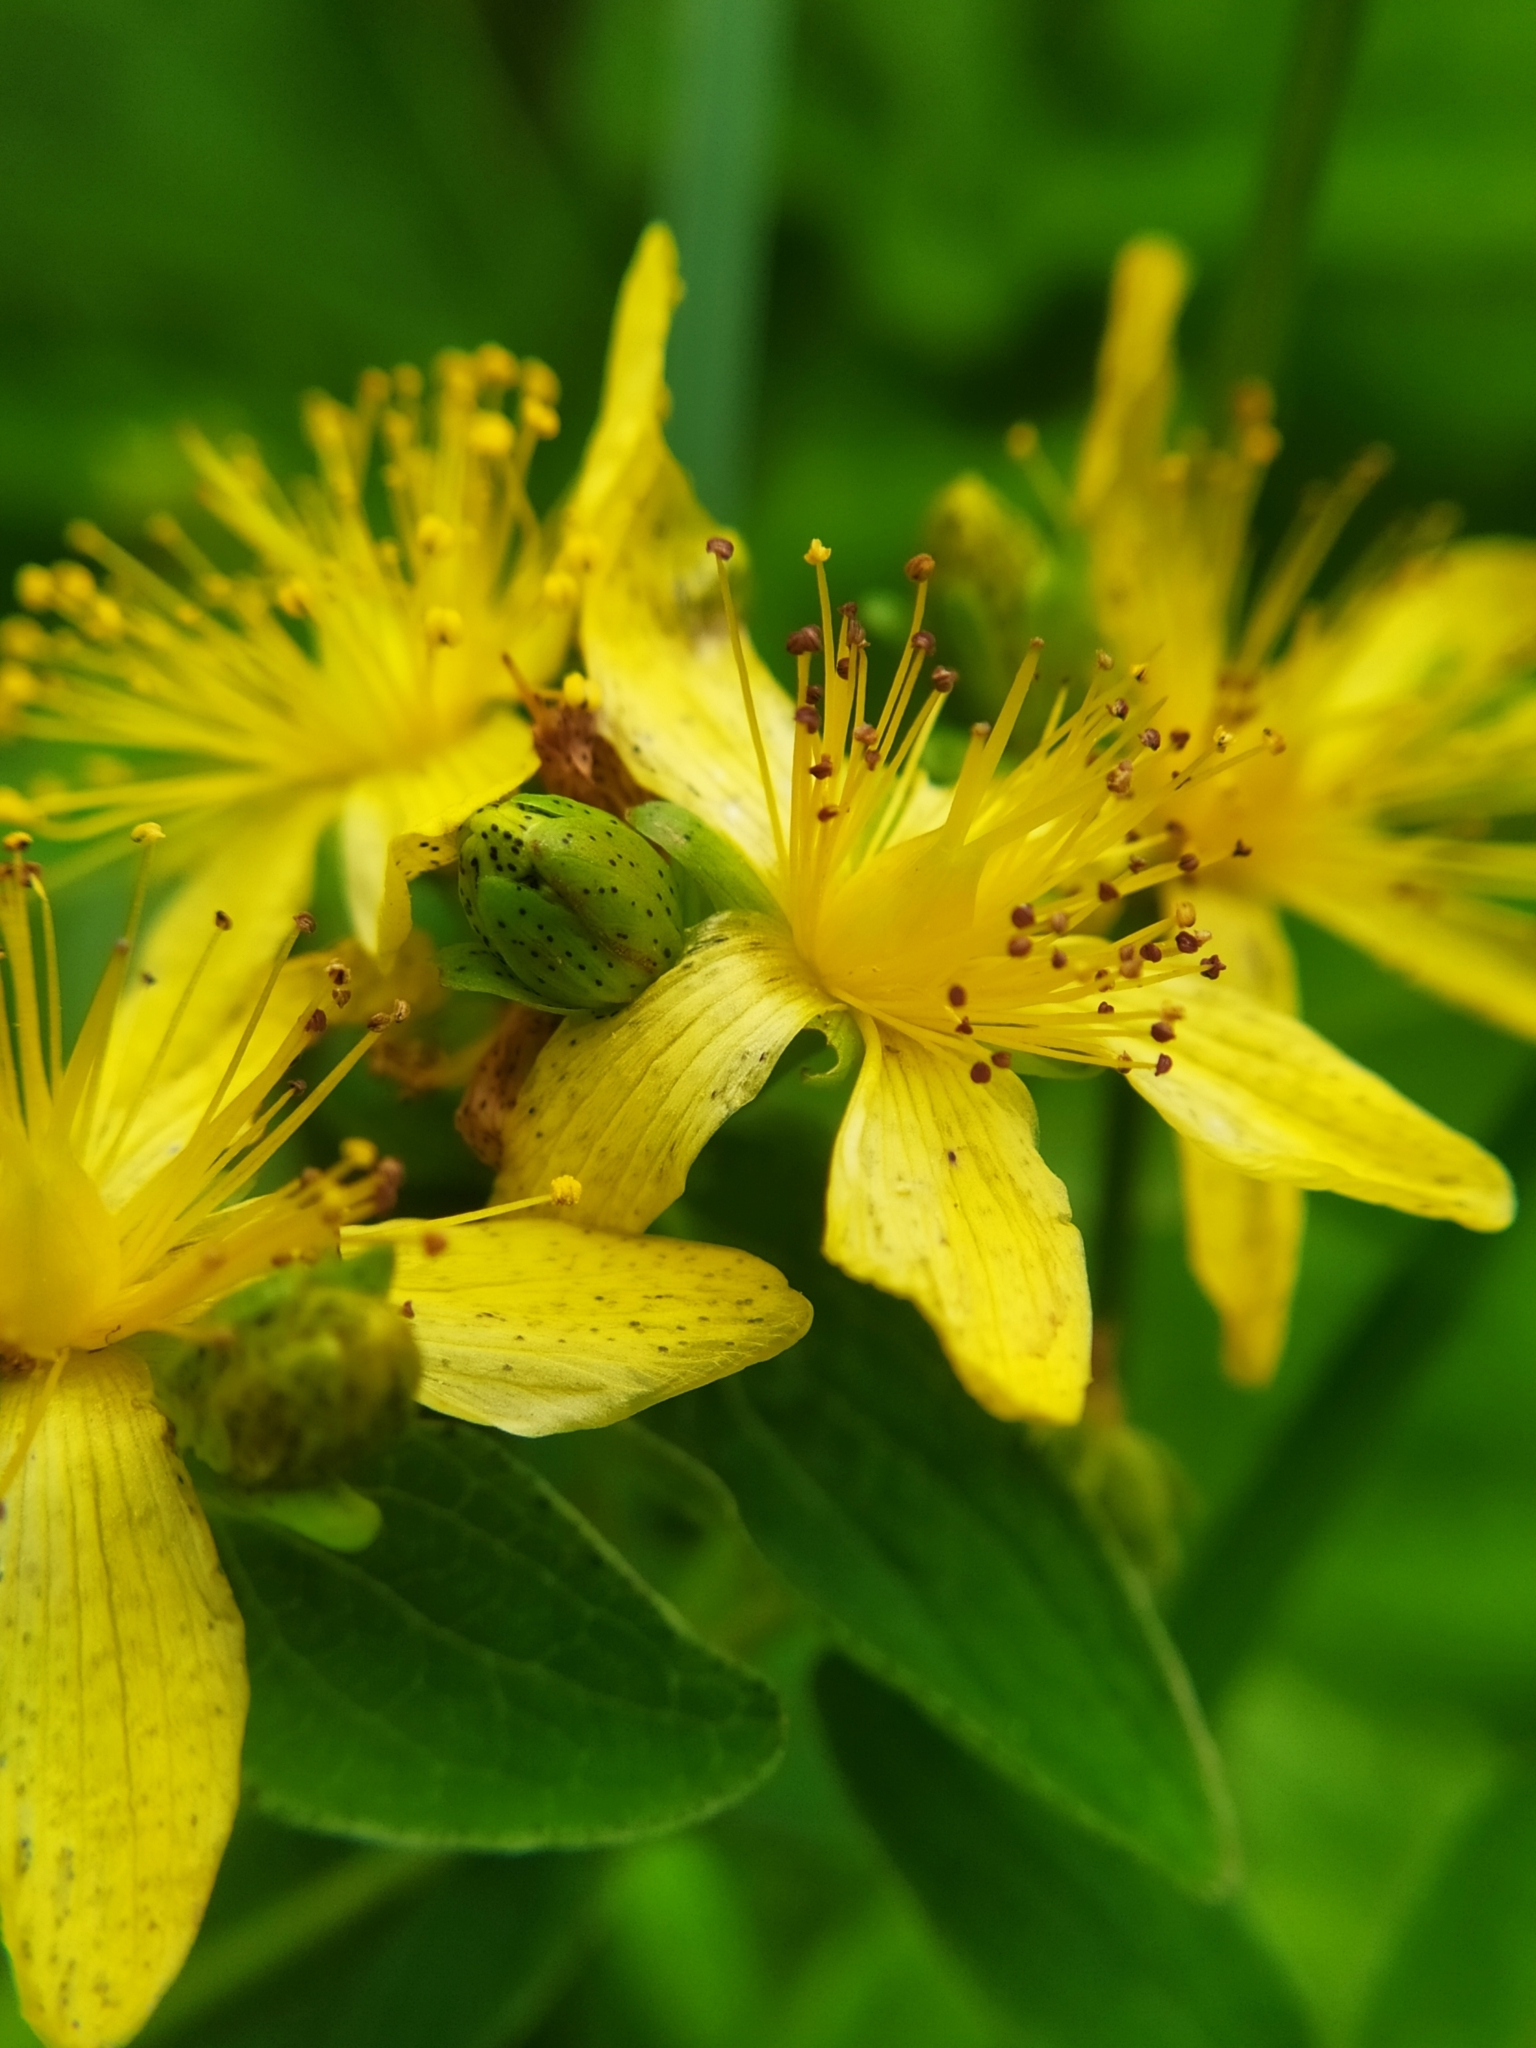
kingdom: Plantae
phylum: Tracheophyta
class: Magnoliopsida
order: Malpighiales
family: Hypericaceae
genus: Hypericum
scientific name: Hypericum maculatum
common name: Imperforate st. john's-wort
